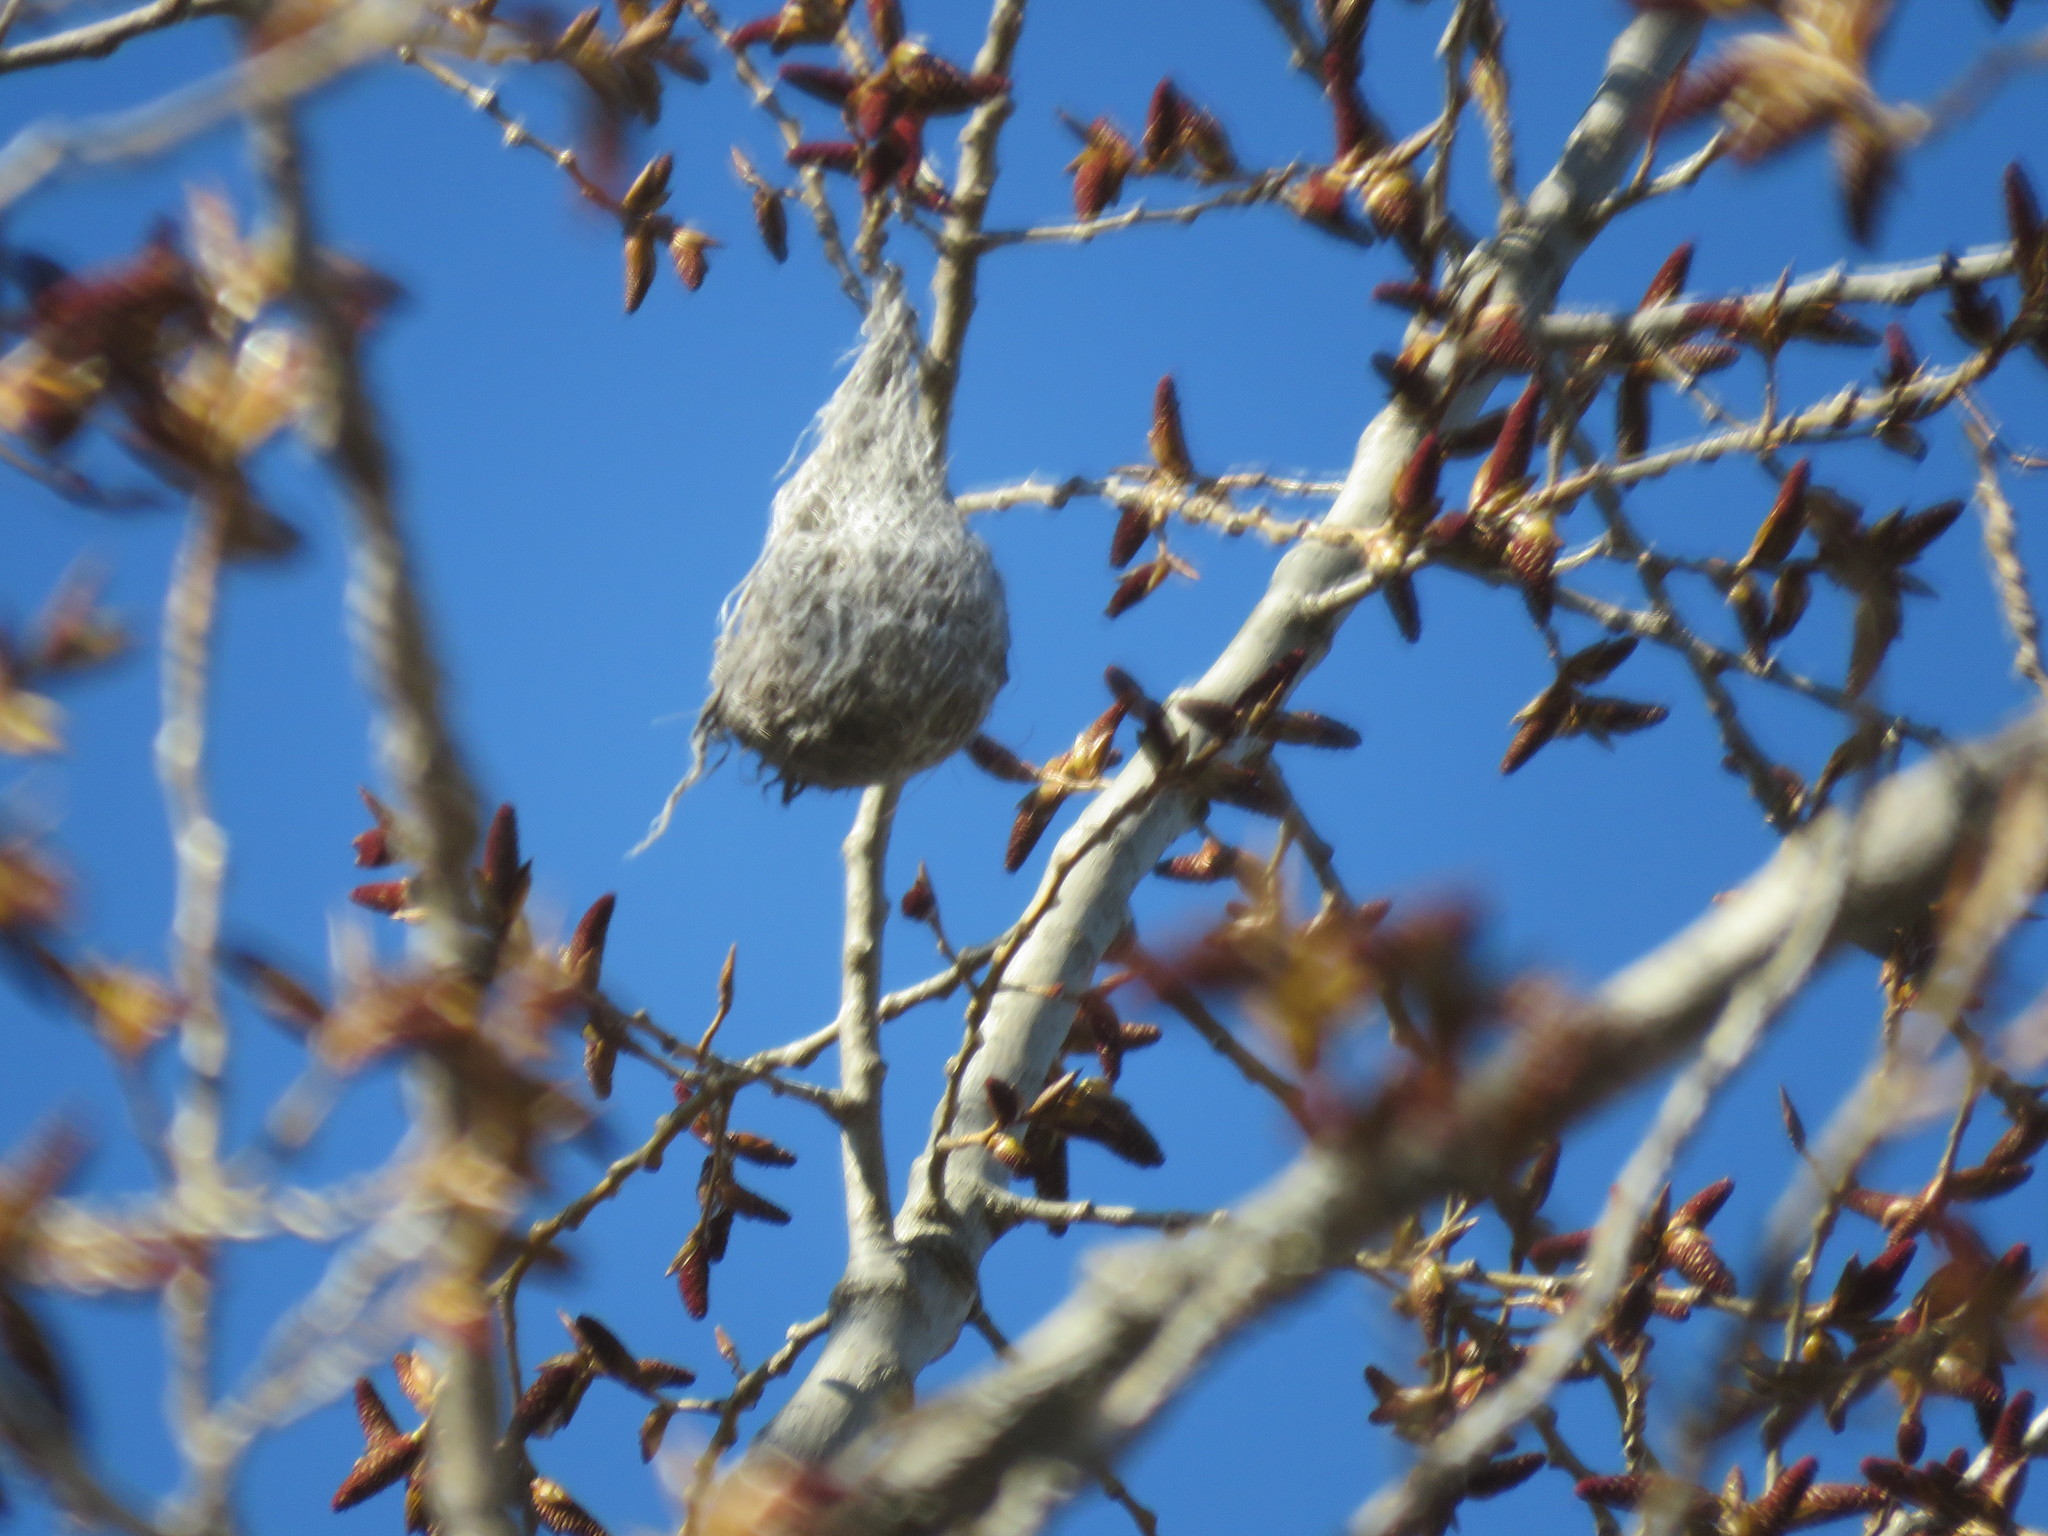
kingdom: Animalia
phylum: Chordata
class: Aves
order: Passeriformes
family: Icteridae
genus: Icterus
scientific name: Icterus galbula
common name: Baltimore oriole
